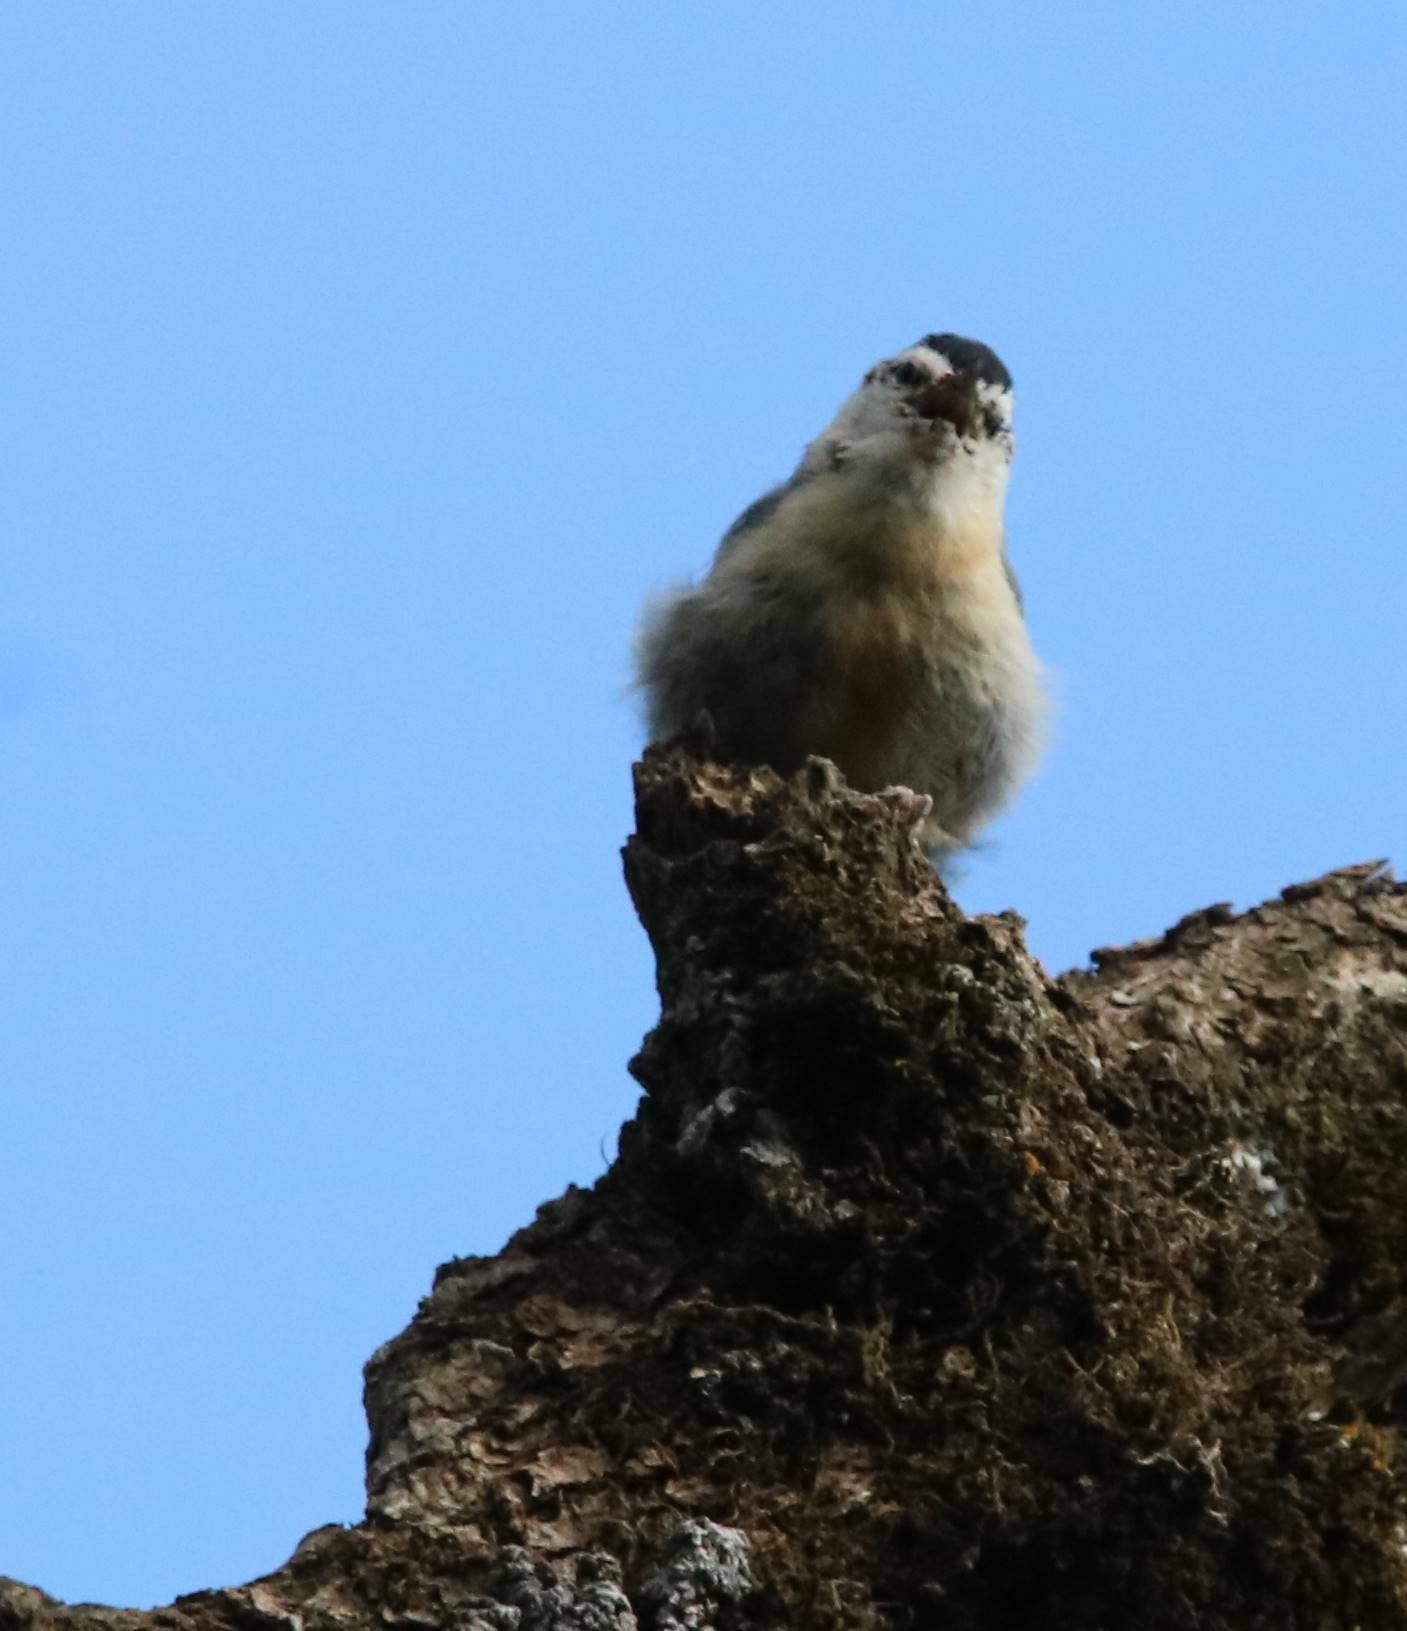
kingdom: Animalia
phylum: Chordata
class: Aves
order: Passeriformes
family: Sittidae
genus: Sitta
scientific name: Sitta ledanti
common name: Algerian nuthatch
